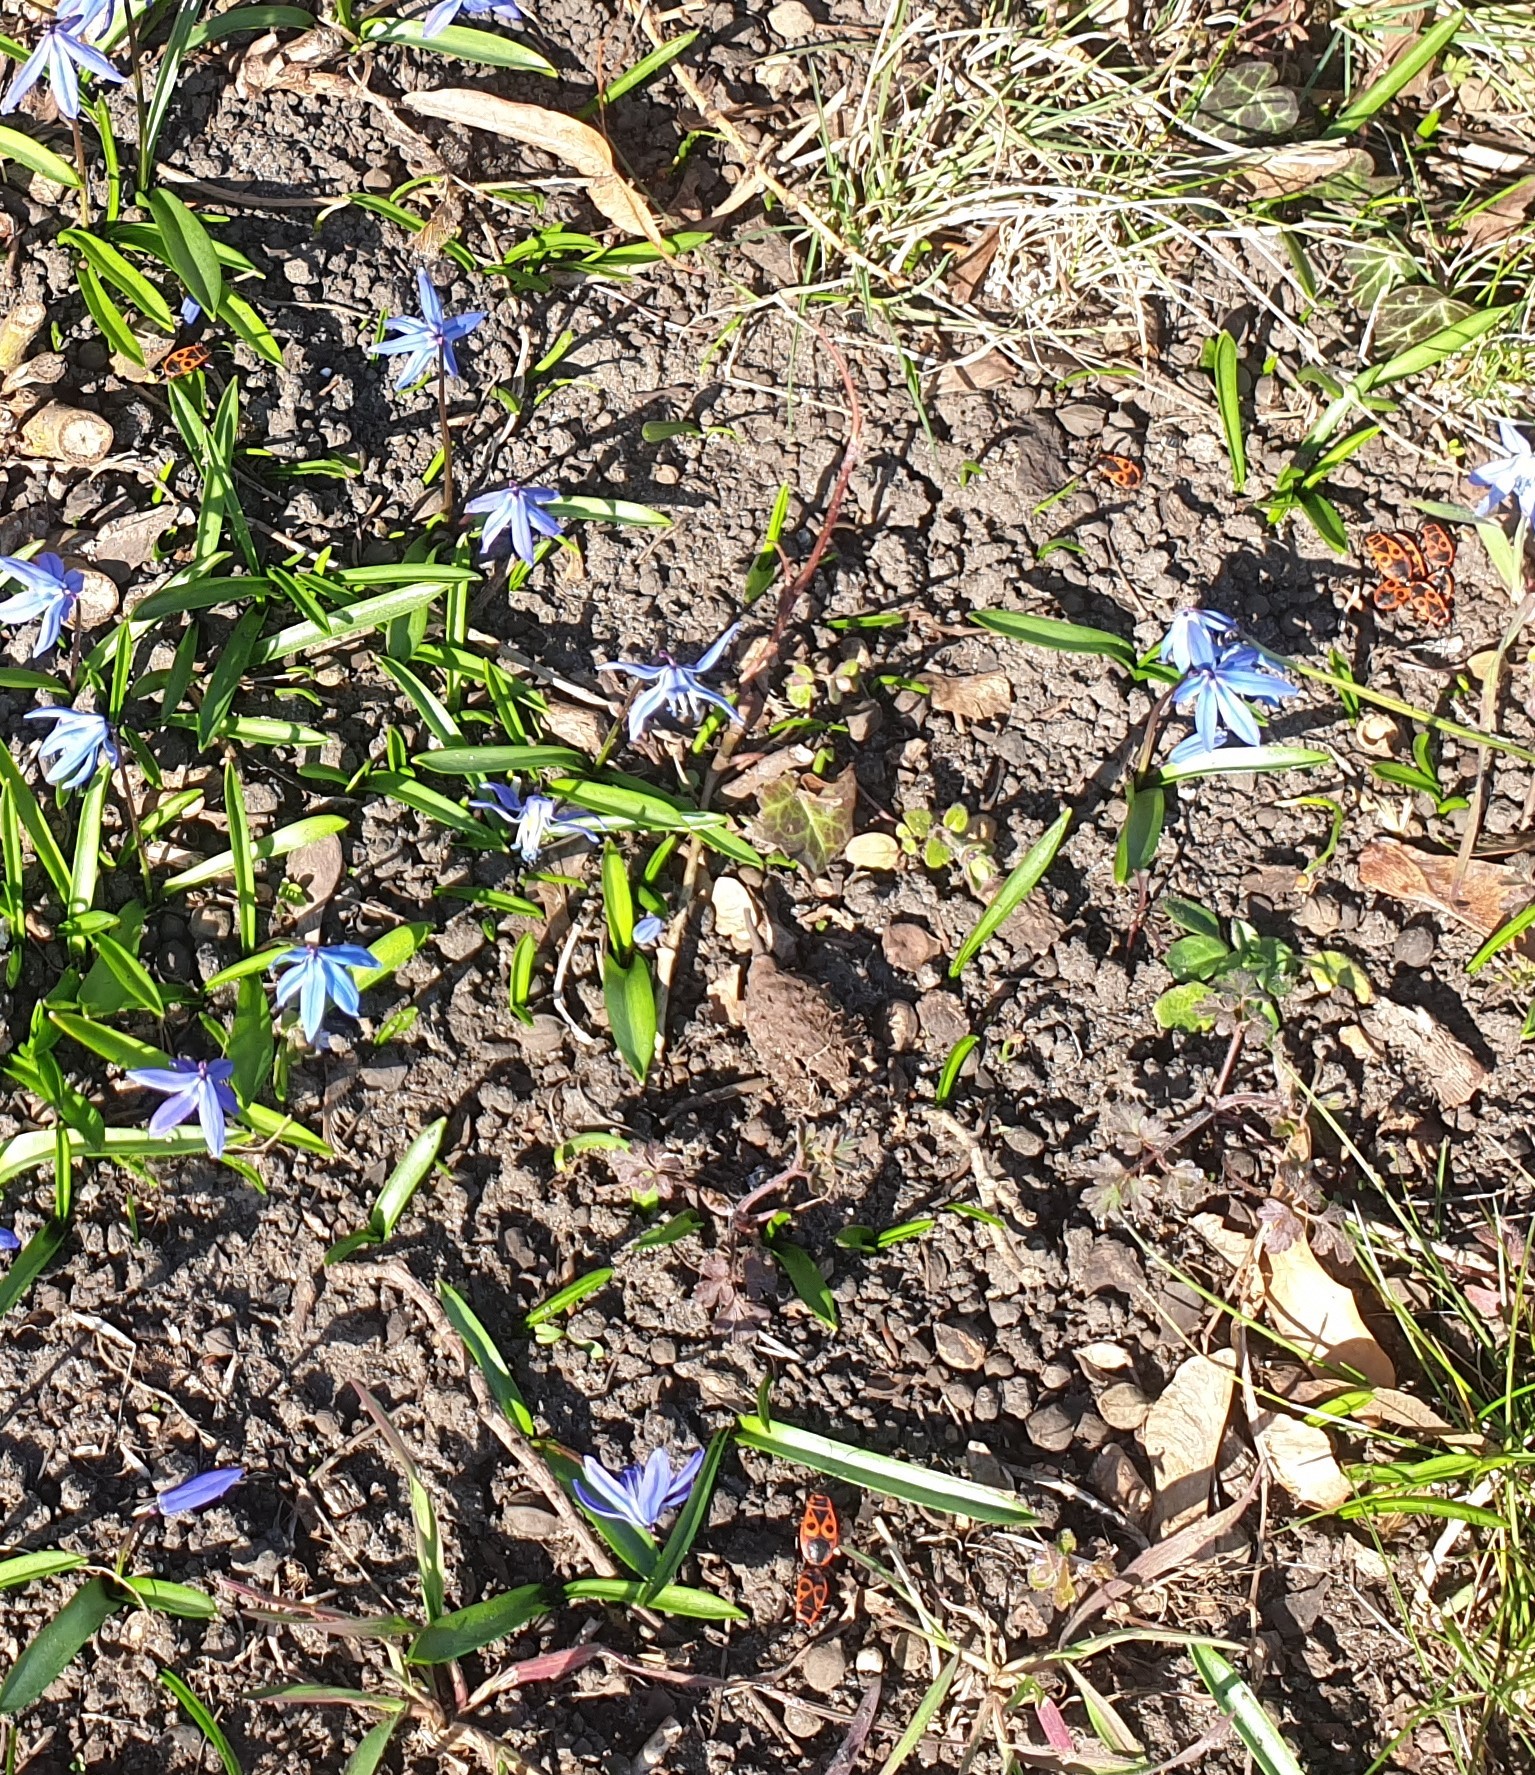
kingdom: Animalia
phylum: Arthropoda
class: Insecta
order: Hemiptera
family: Pyrrhocoridae
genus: Pyrrhocoris
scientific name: Pyrrhocoris apterus
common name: Firebug
